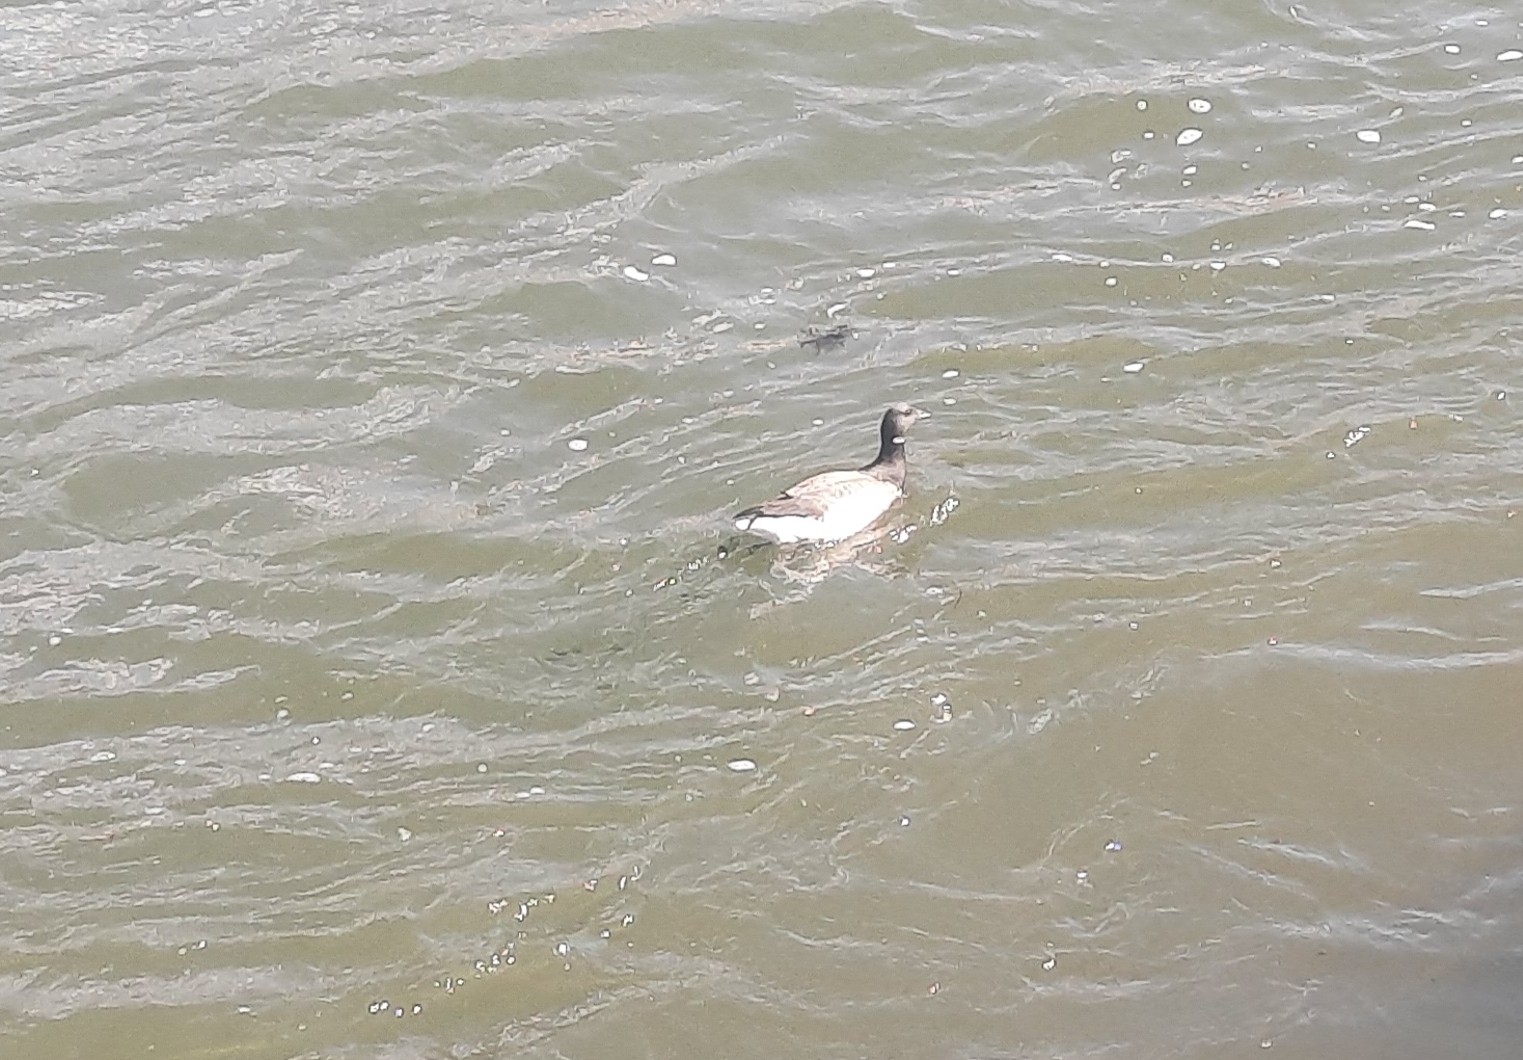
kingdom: Animalia
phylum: Chordata
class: Aves
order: Anseriformes
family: Anatidae
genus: Branta
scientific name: Branta bernicla
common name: Brant goose
